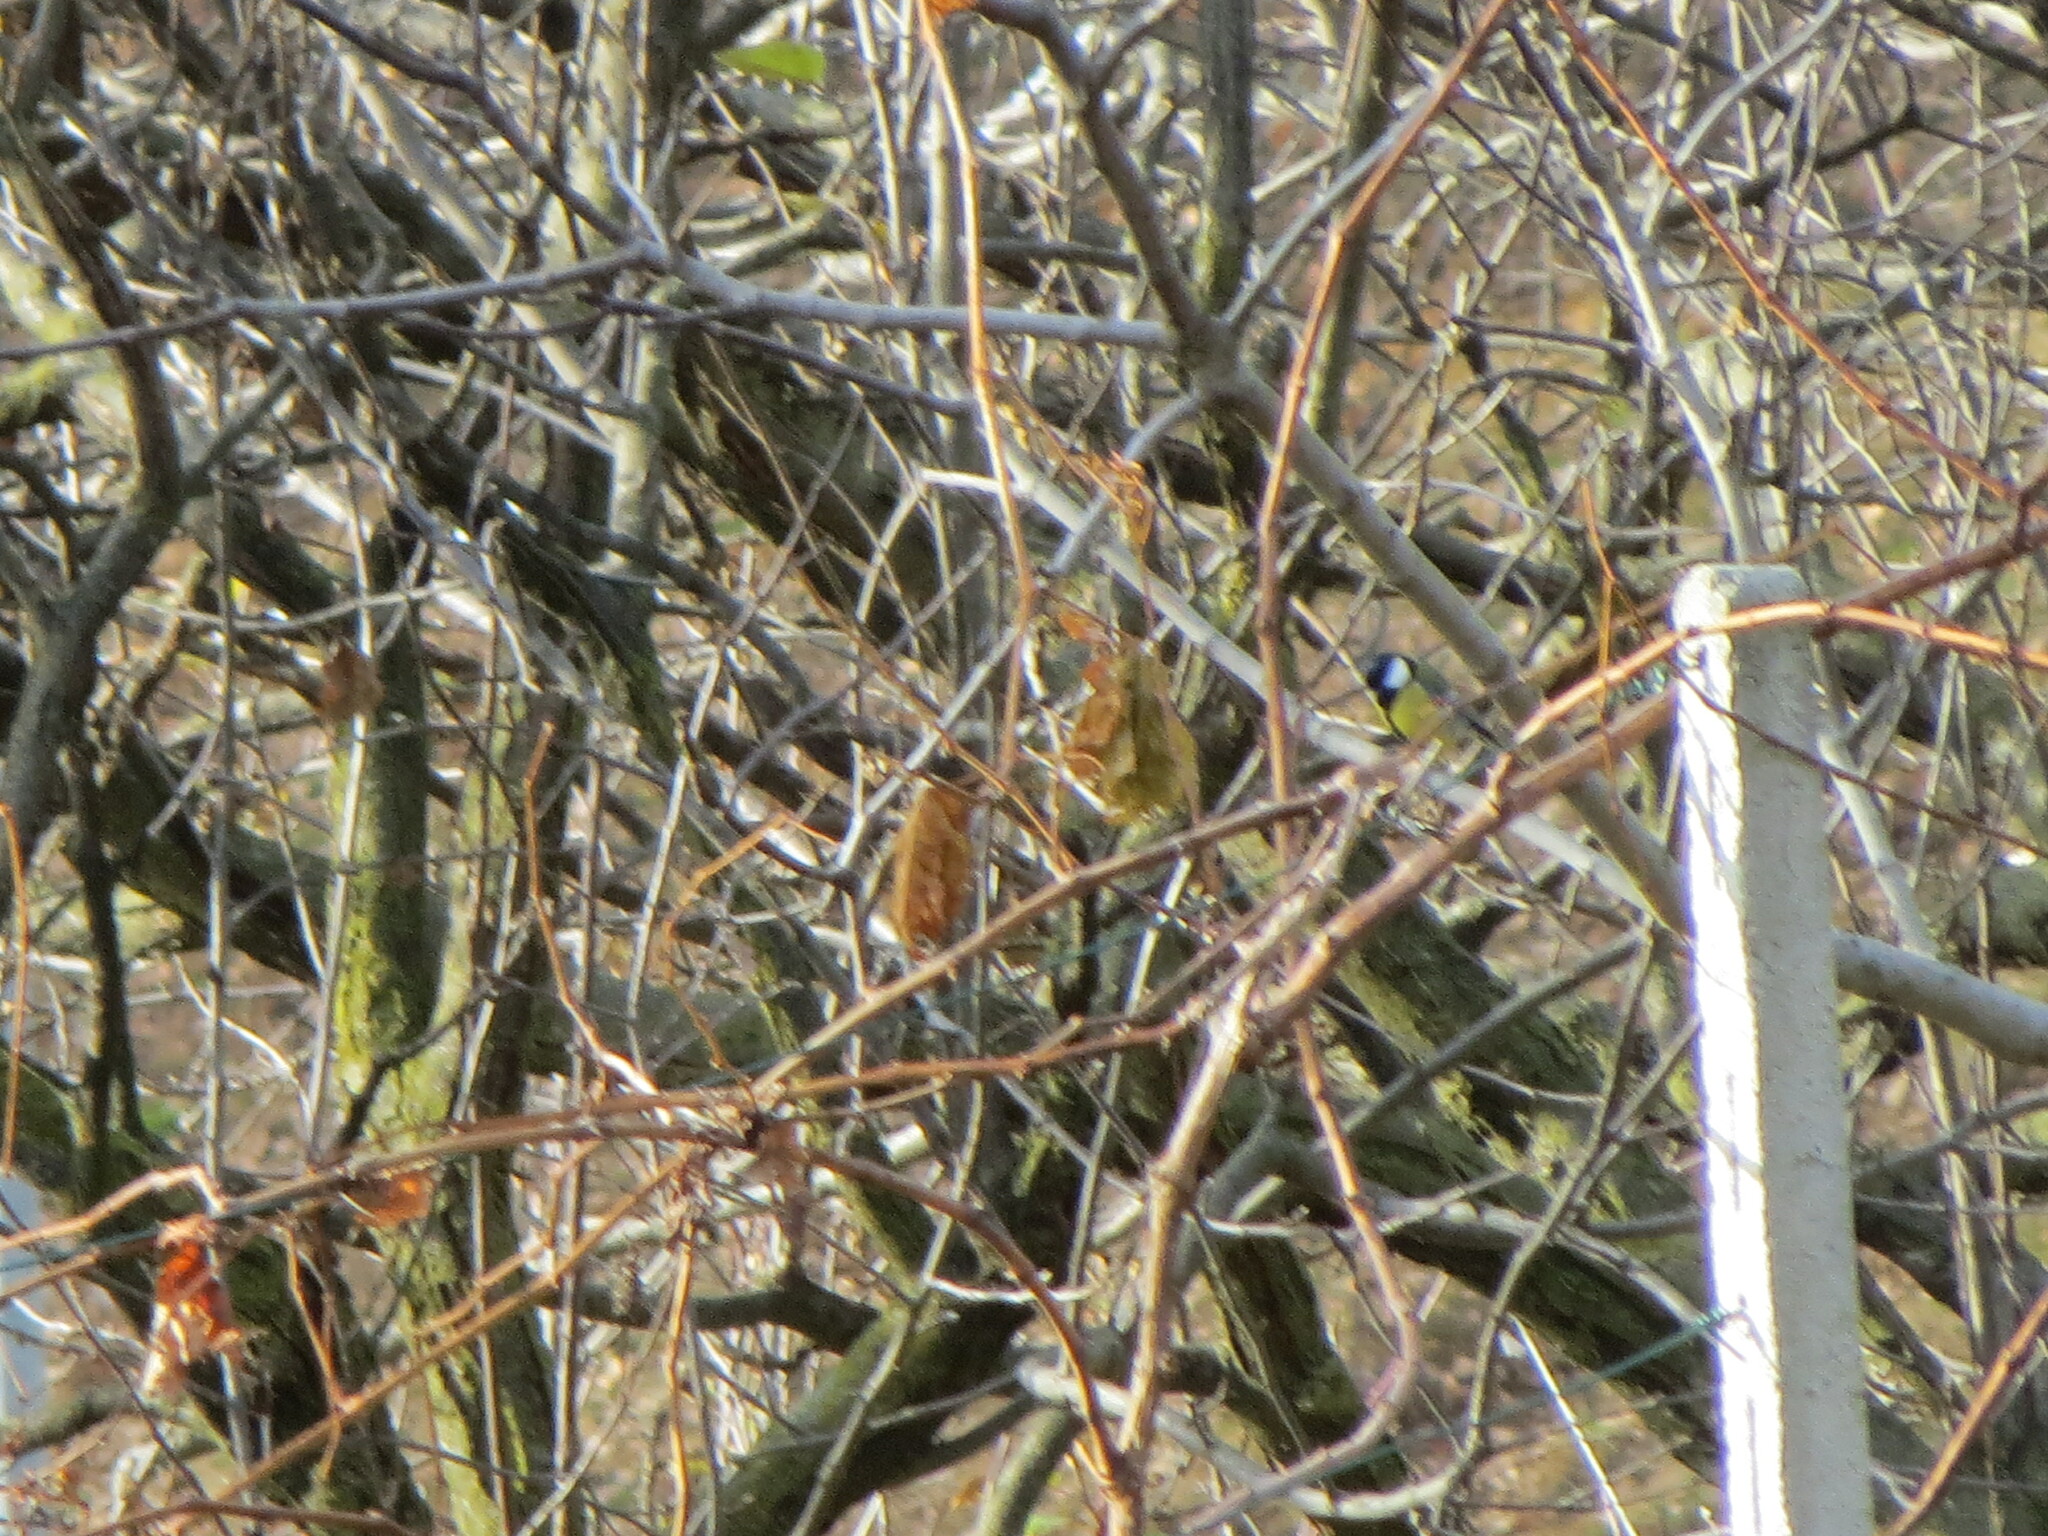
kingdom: Animalia
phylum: Chordata
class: Aves
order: Passeriformes
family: Paridae
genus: Parus
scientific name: Parus major
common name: Great tit
